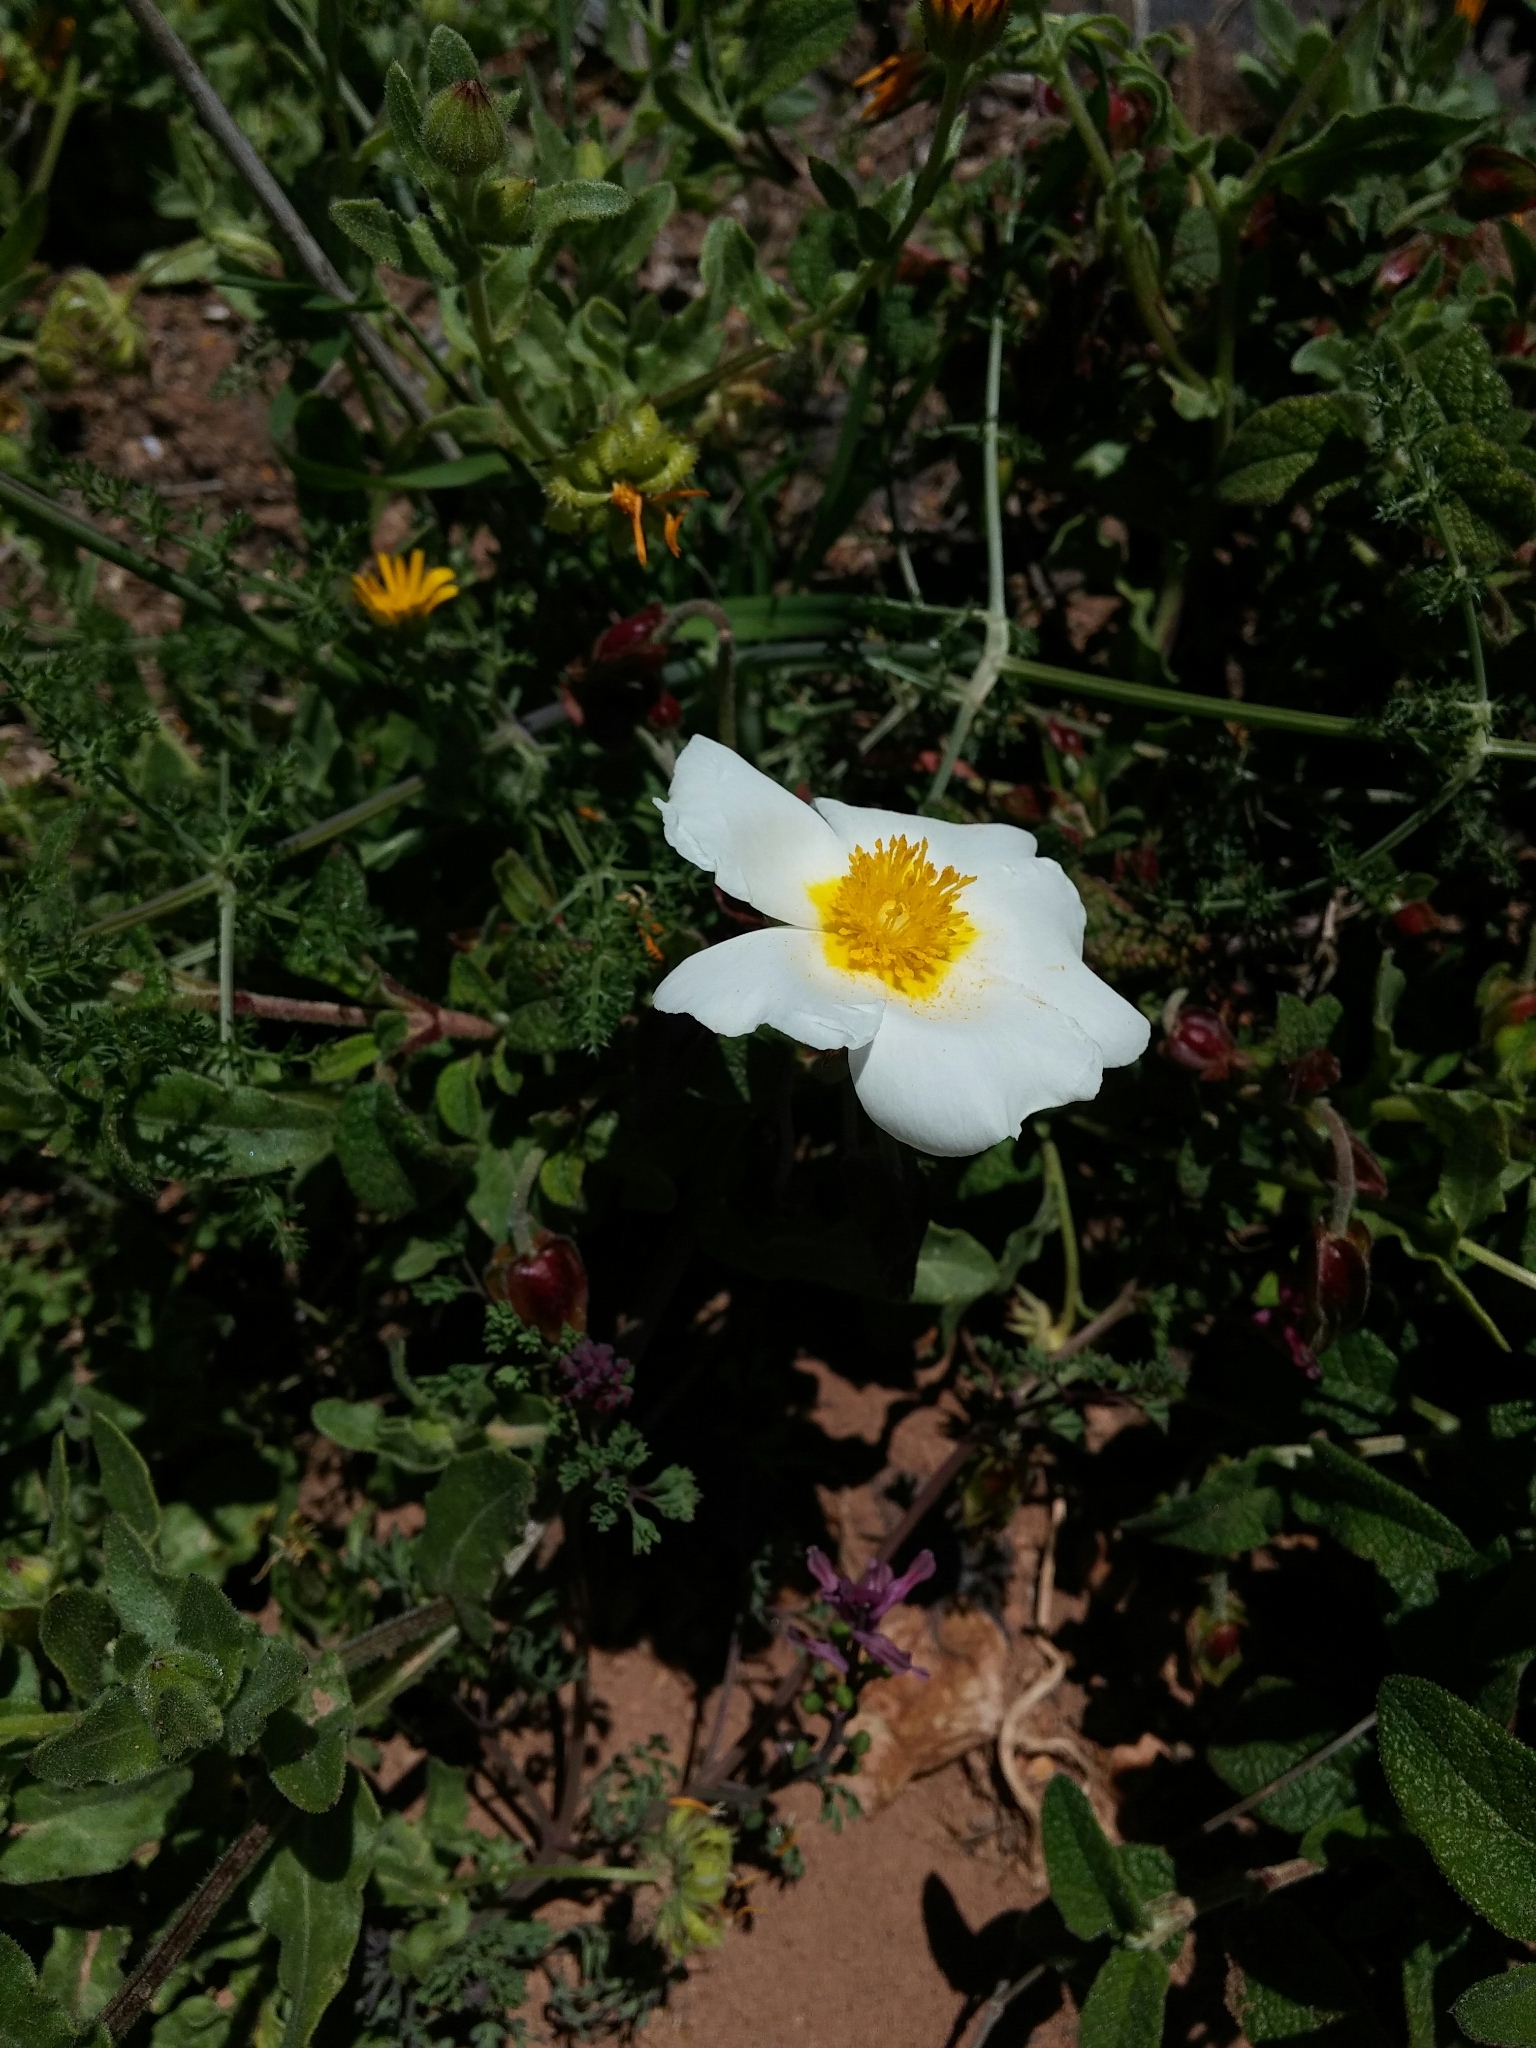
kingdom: Plantae
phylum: Tracheophyta
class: Magnoliopsida
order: Malvales
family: Cistaceae
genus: Cistus
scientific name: Cistus salviifolius
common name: Salvia cistus
